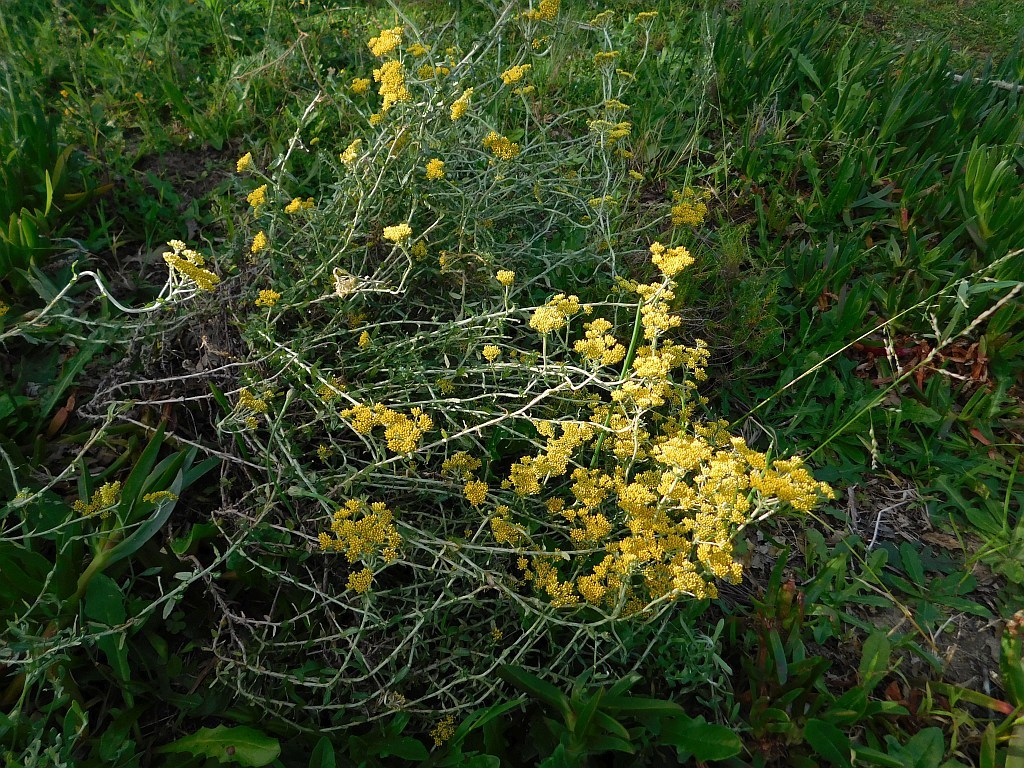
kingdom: Plantae
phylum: Tracheophyta
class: Magnoliopsida
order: Asterales
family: Asteraceae
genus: Helichrysum
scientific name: Helichrysum cymosum
